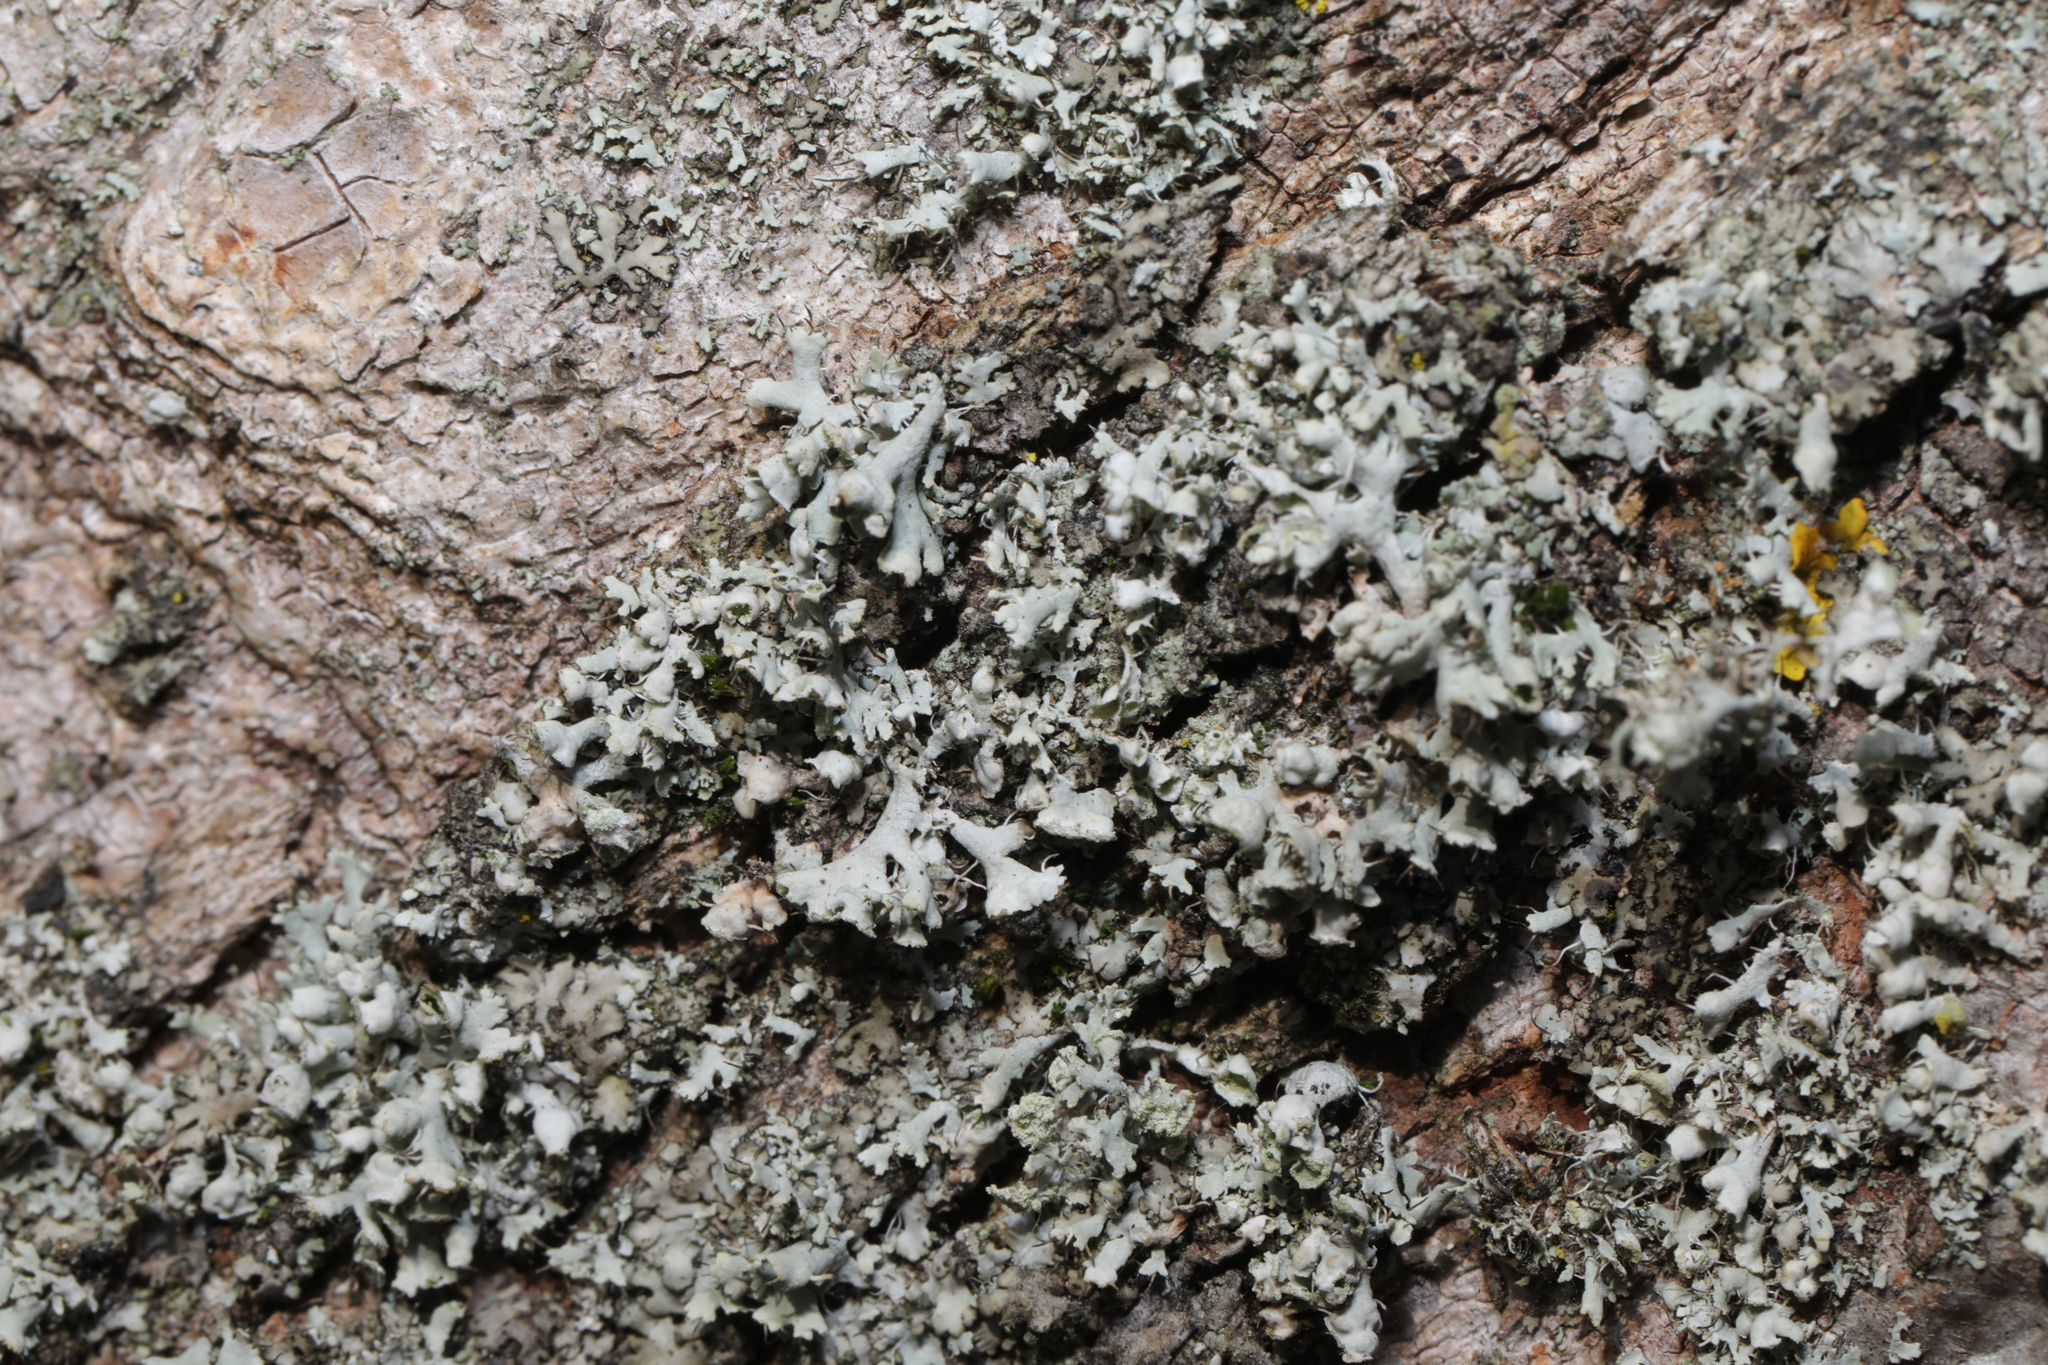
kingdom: Fungi
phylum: Ascomycota
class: Lecanoromycetes
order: Caliciales
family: Physciaceae
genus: Physcia
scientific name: Physcia adscendens
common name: Hooded rosette lichen
